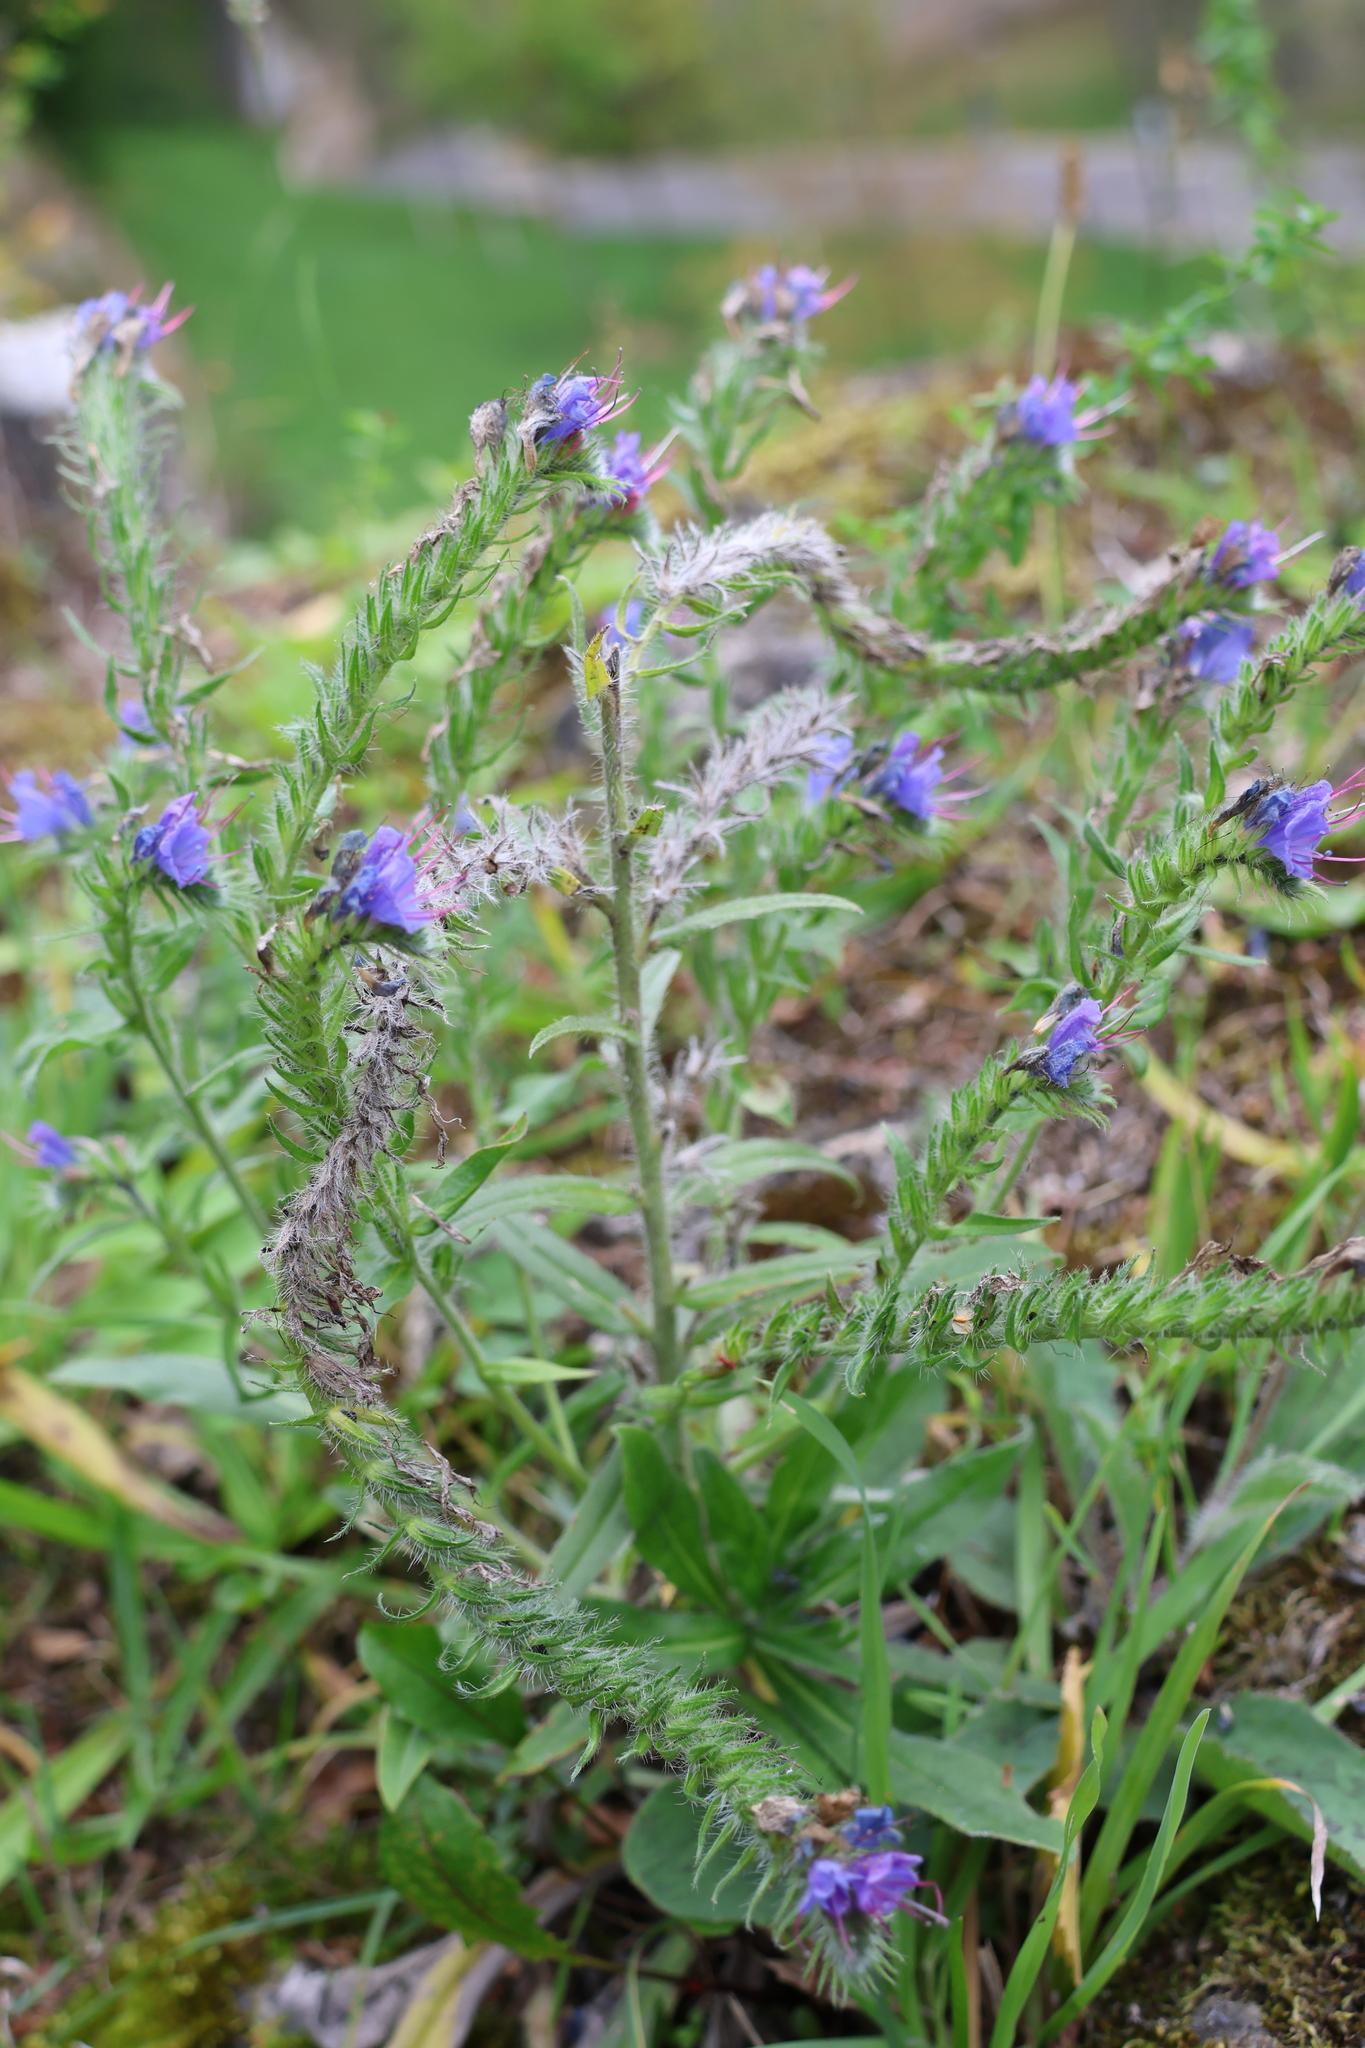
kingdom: Plantae
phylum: Tracheophyta
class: Magnoliopsida
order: Boraginales
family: Boraginaceae
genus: Echium
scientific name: Echium vulgare
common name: Common viper's bugloss
